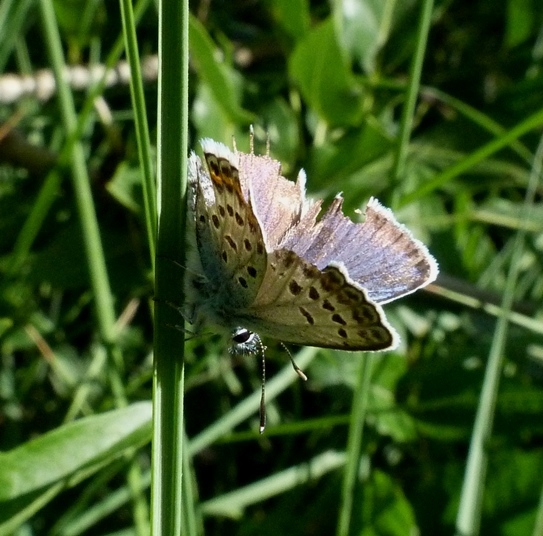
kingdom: Animalia
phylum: Arthropoda
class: Insecta
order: Lepidoptera
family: Lycaenidae
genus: Plebejus
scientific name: Plebejus argus
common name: Silver-studded blue
